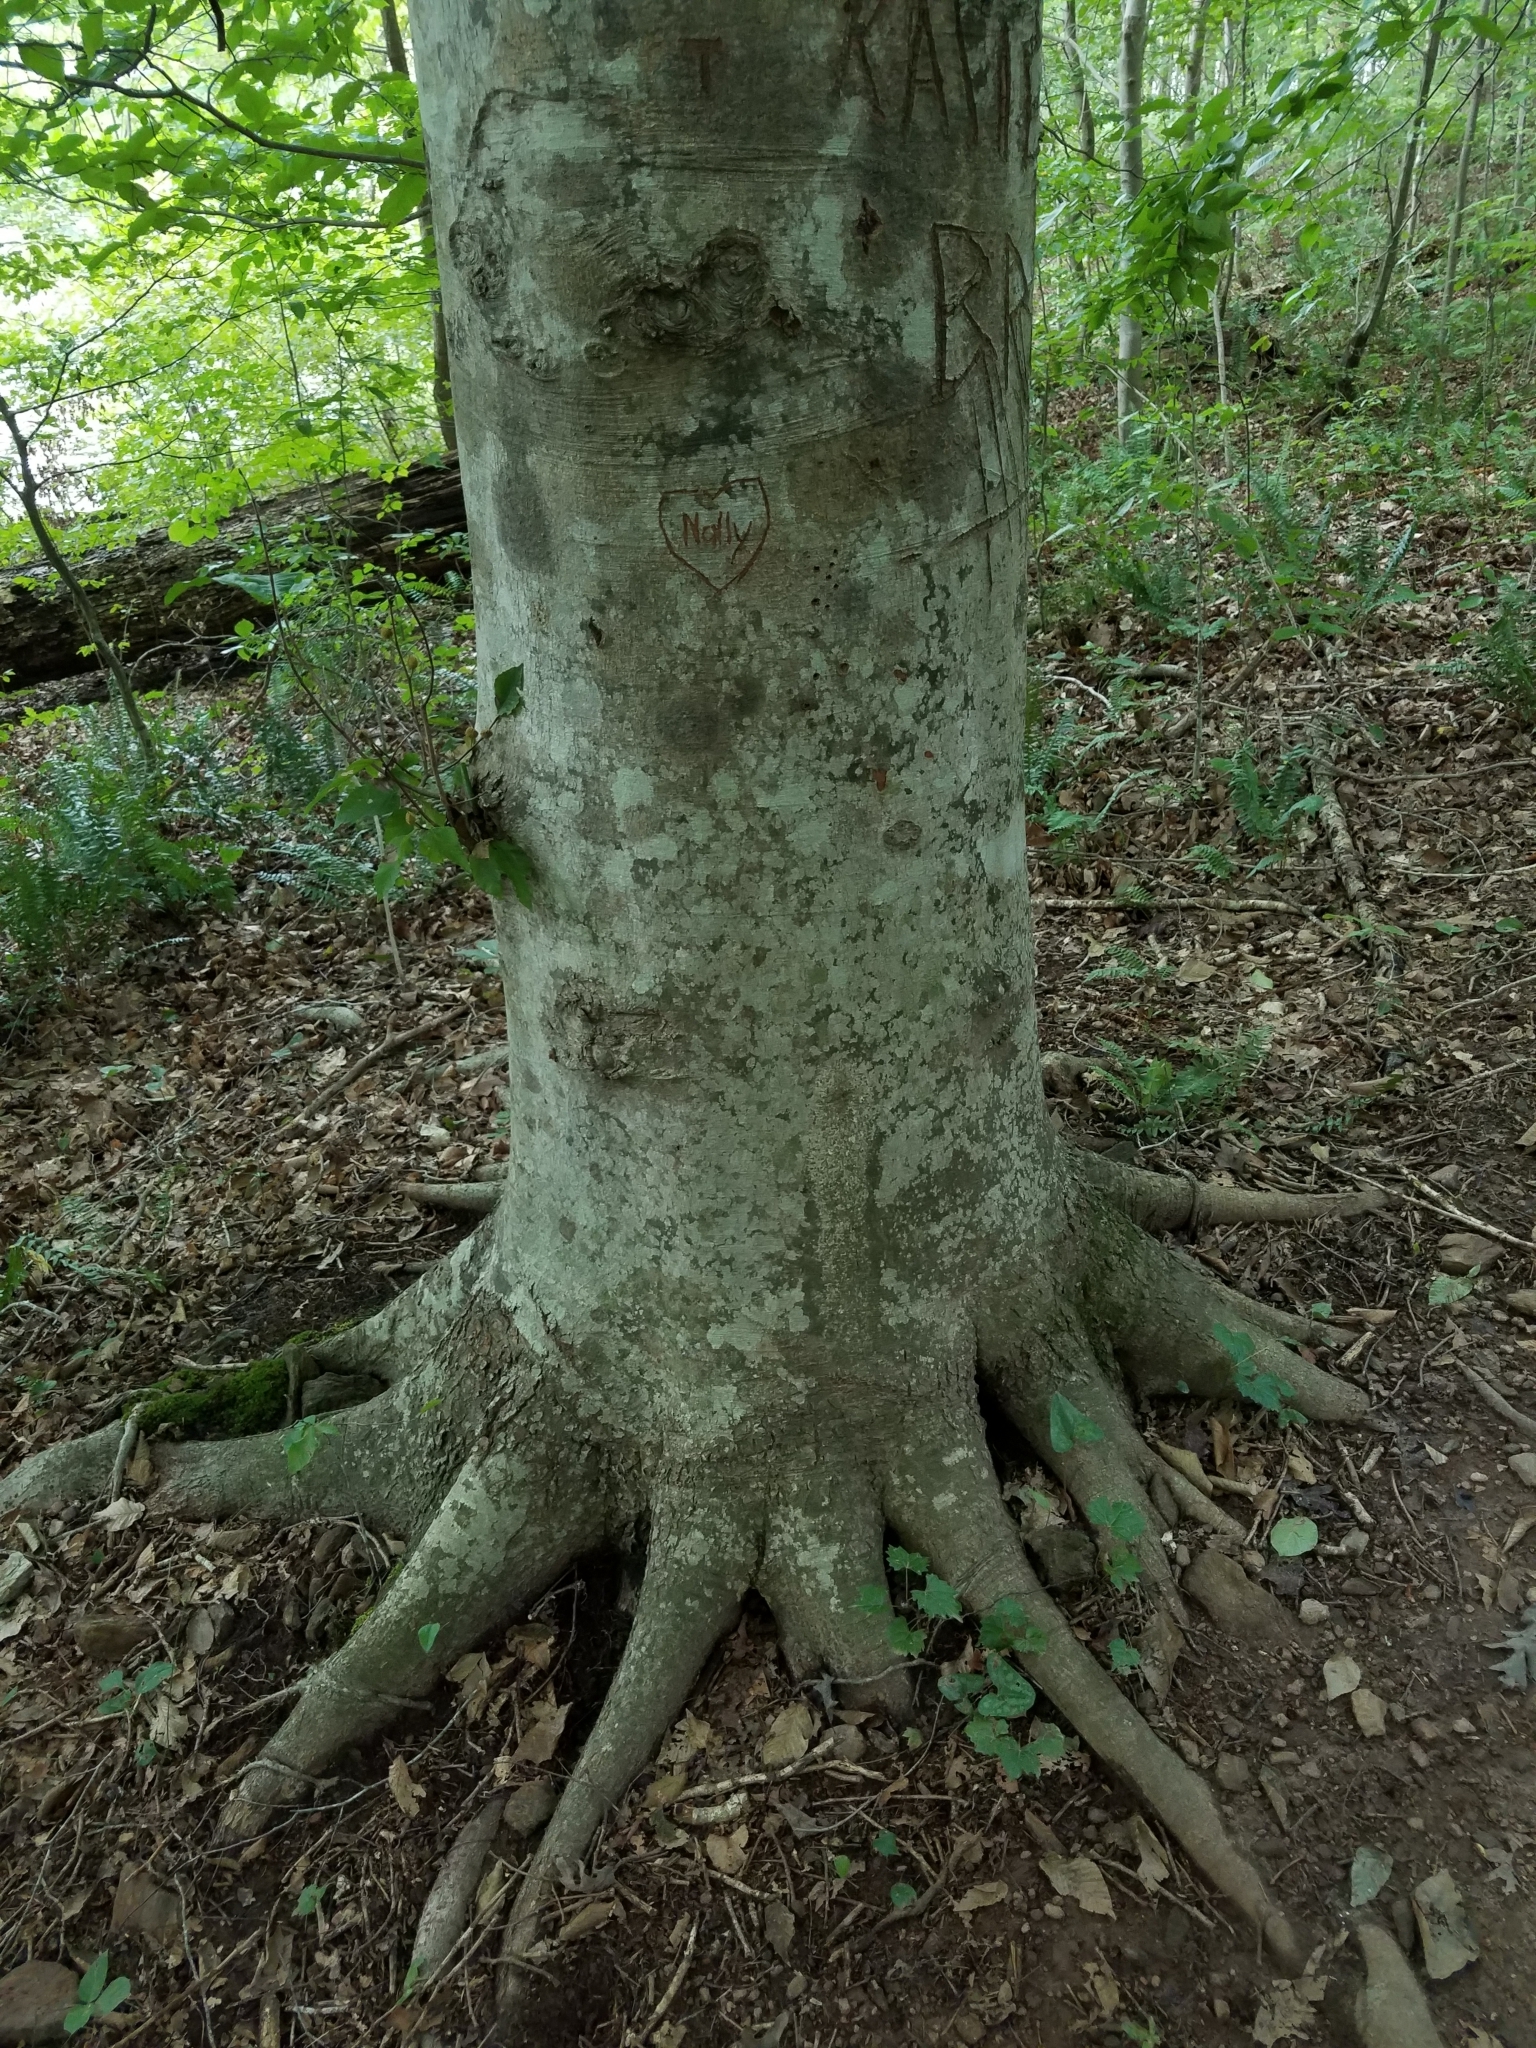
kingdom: Plantae
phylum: Tracheophyta
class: Magnoliopsida
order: Fagales
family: Fagaceae
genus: Fagus
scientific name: Fagus grandifolia
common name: American beech
